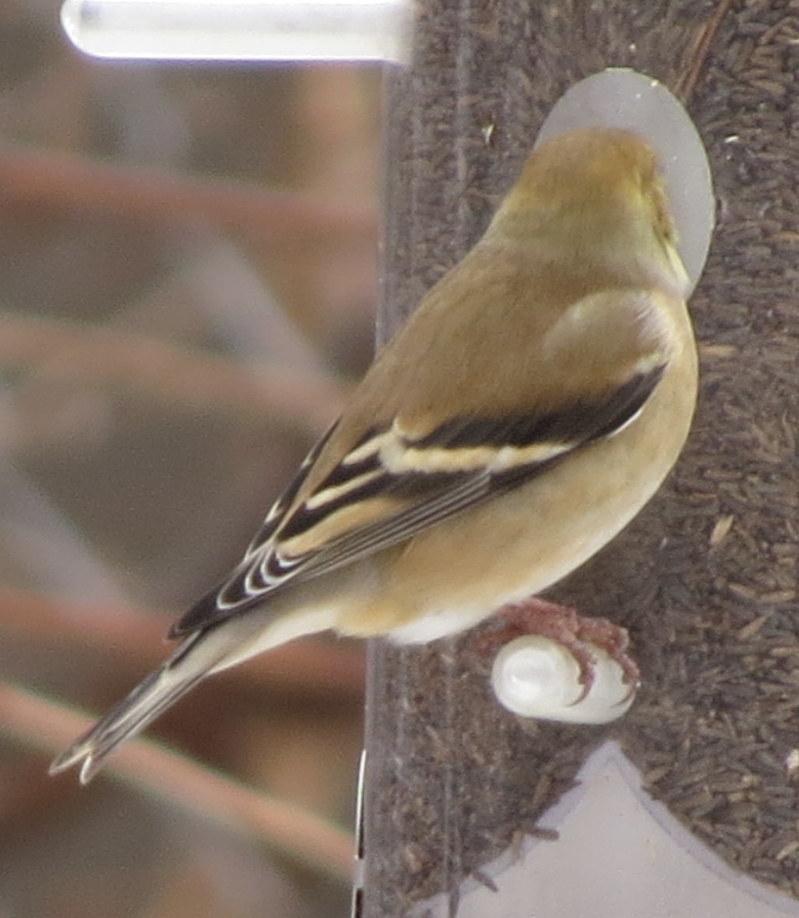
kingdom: Animalia
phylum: Chordata
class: Aves
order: Passeriformes
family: Fringillidae
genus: Spinus
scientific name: Spinus tristis
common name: American goldfinch
